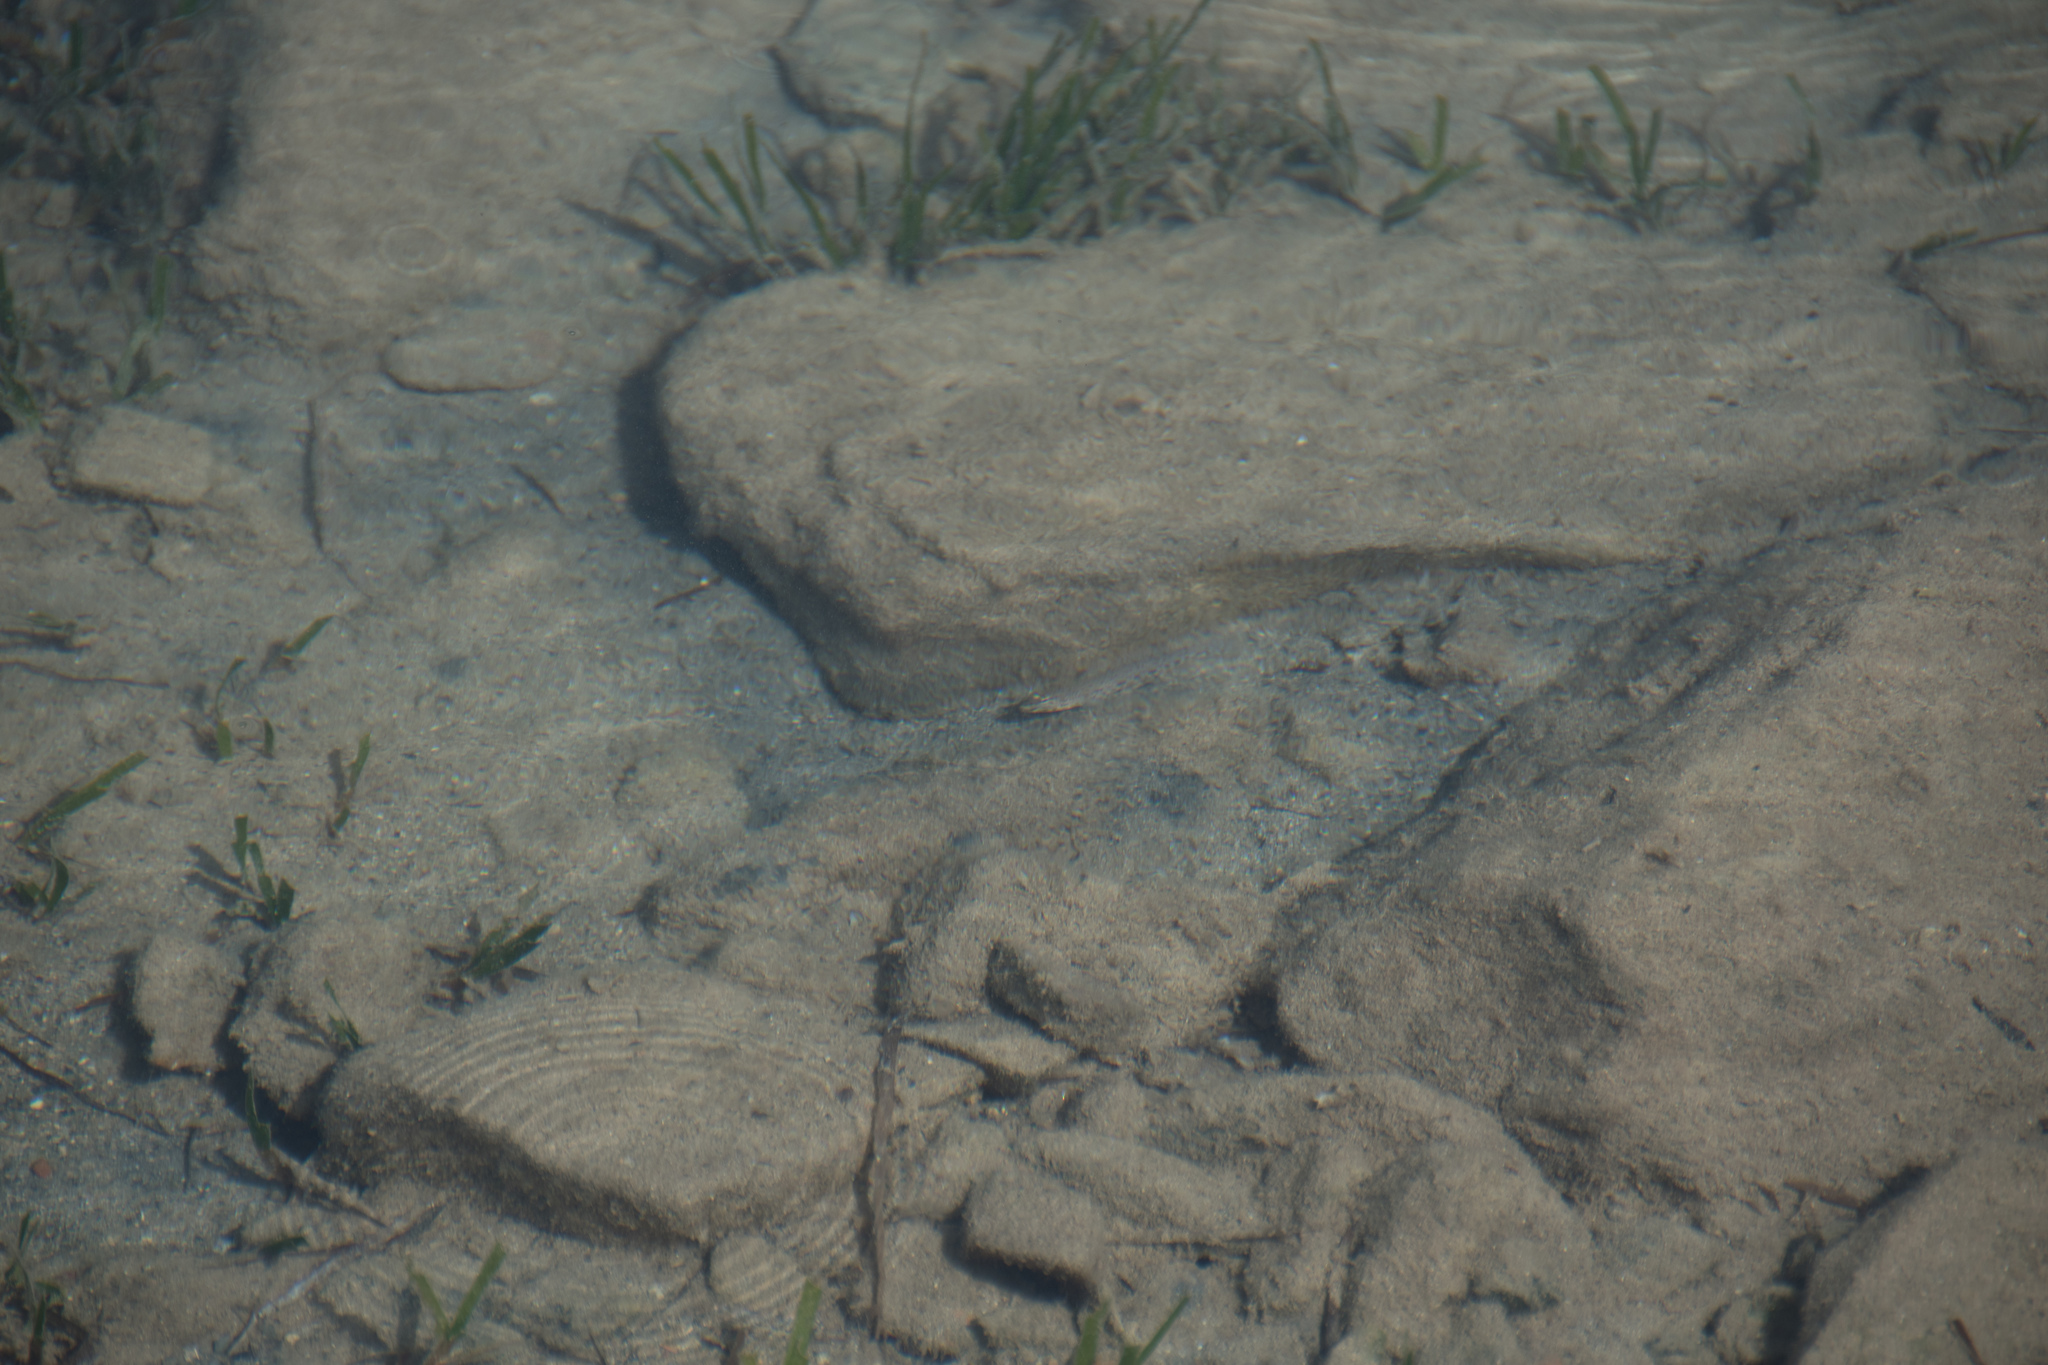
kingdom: Animalia
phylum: Chordata
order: Perciformes
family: Gobiidae
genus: Gobius
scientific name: Gobius incognitus
